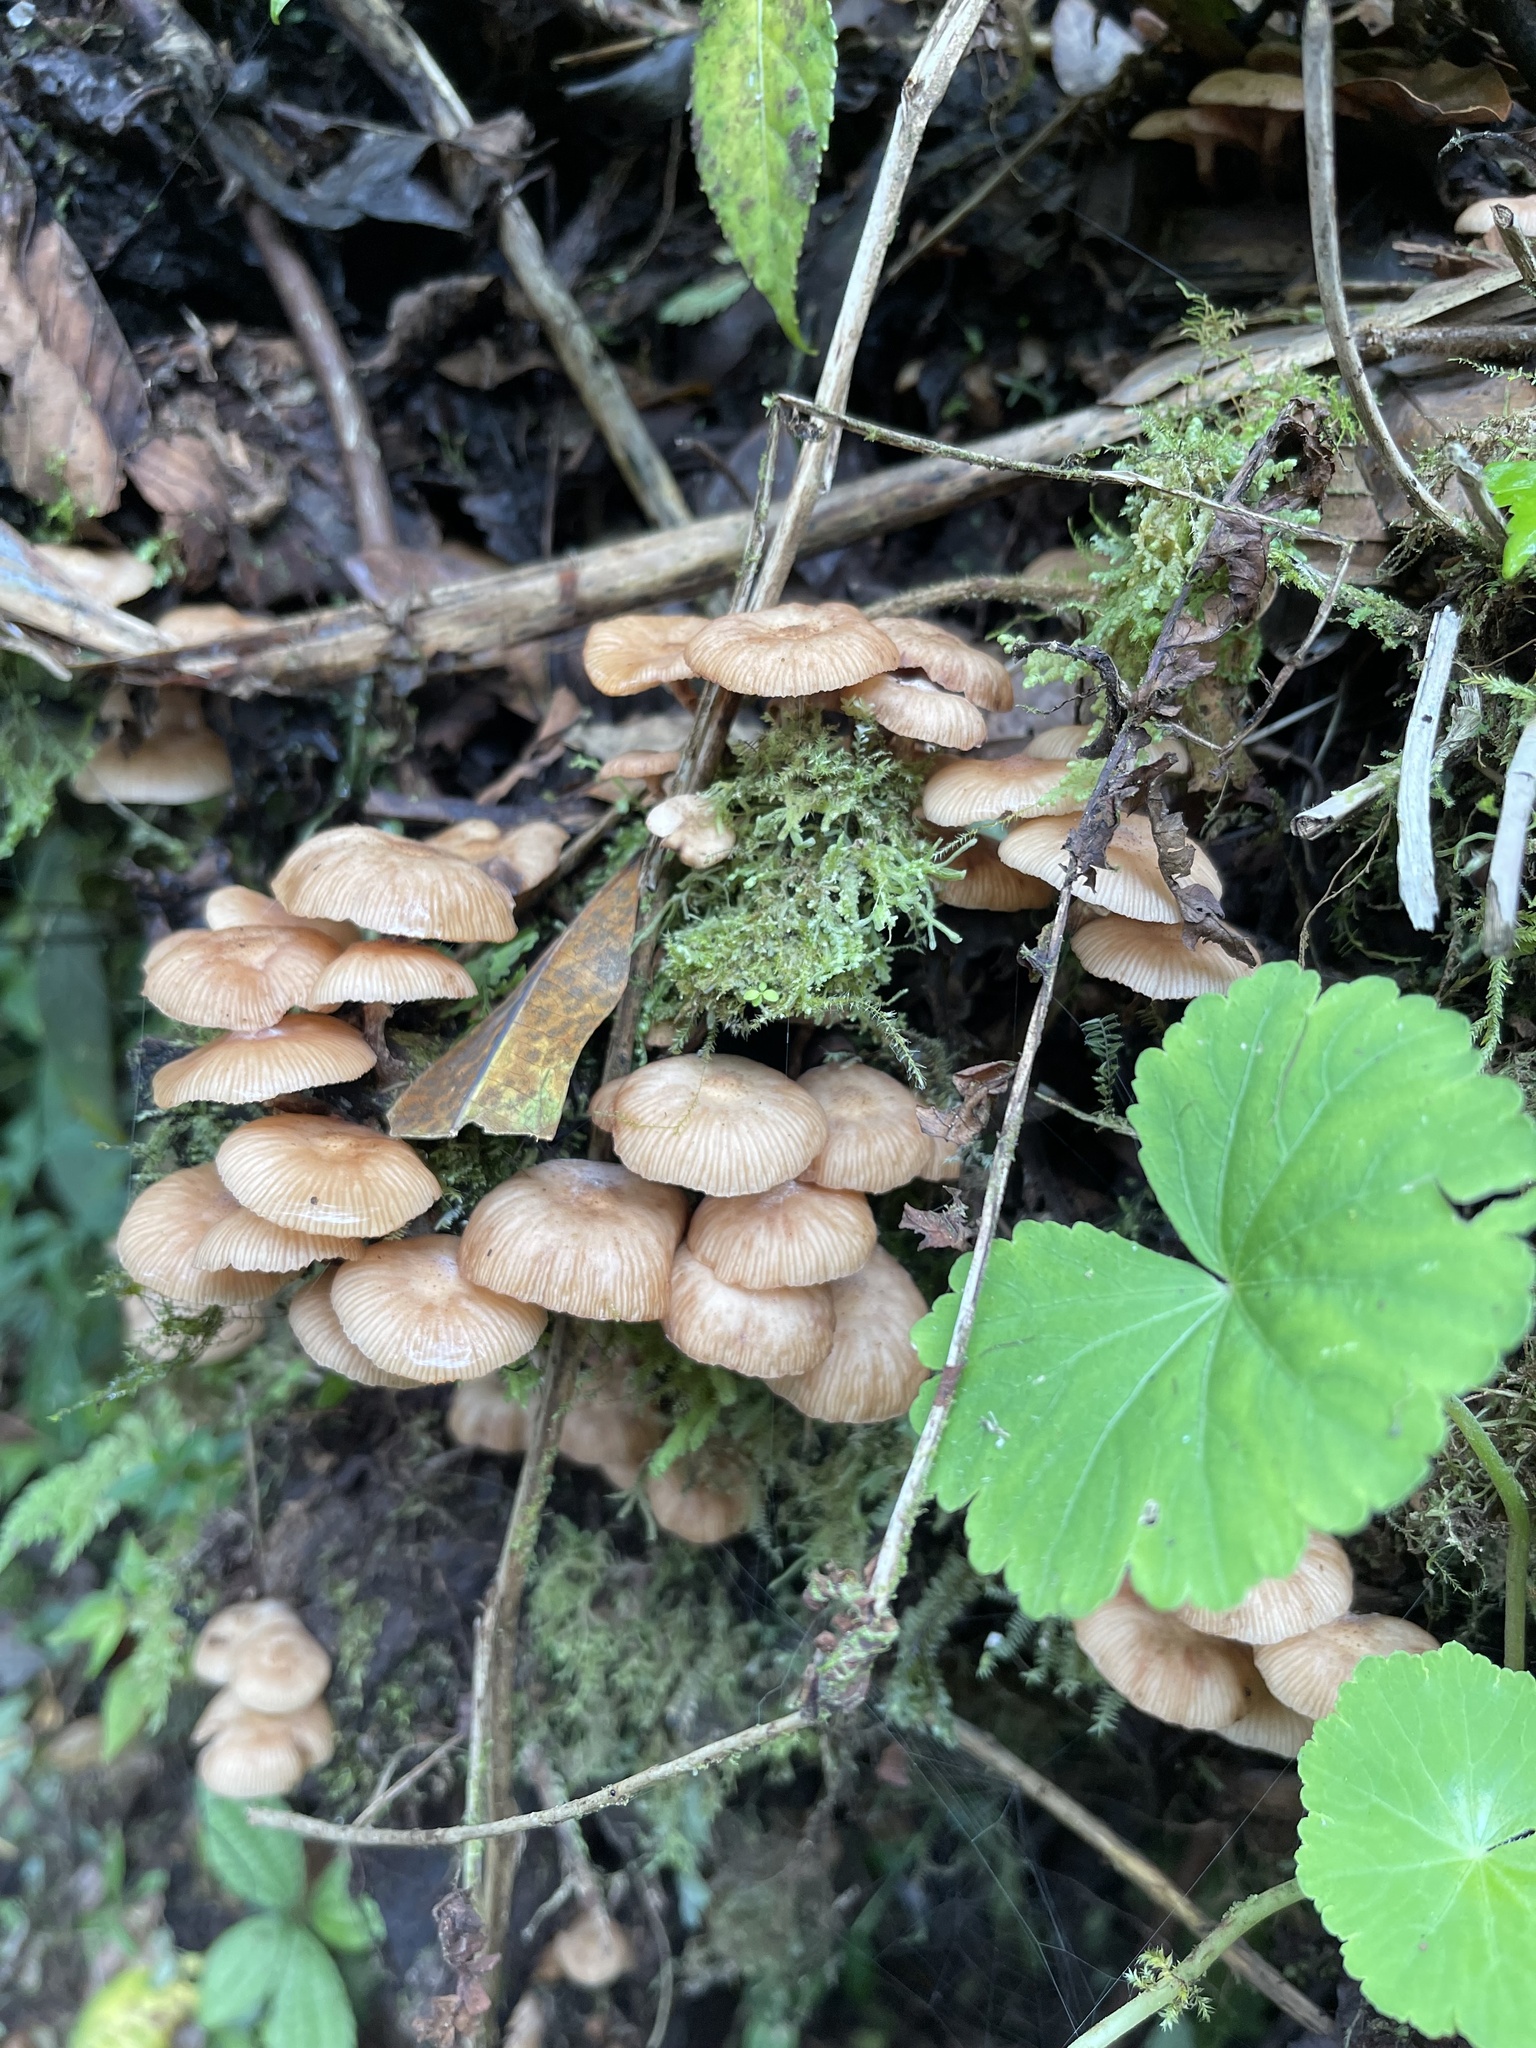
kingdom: Fungi
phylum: Basidiomycota
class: Agaricomycetes
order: Agaricales
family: Physalacriaceae
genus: Armillaria
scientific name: Armillaria puiggarii
